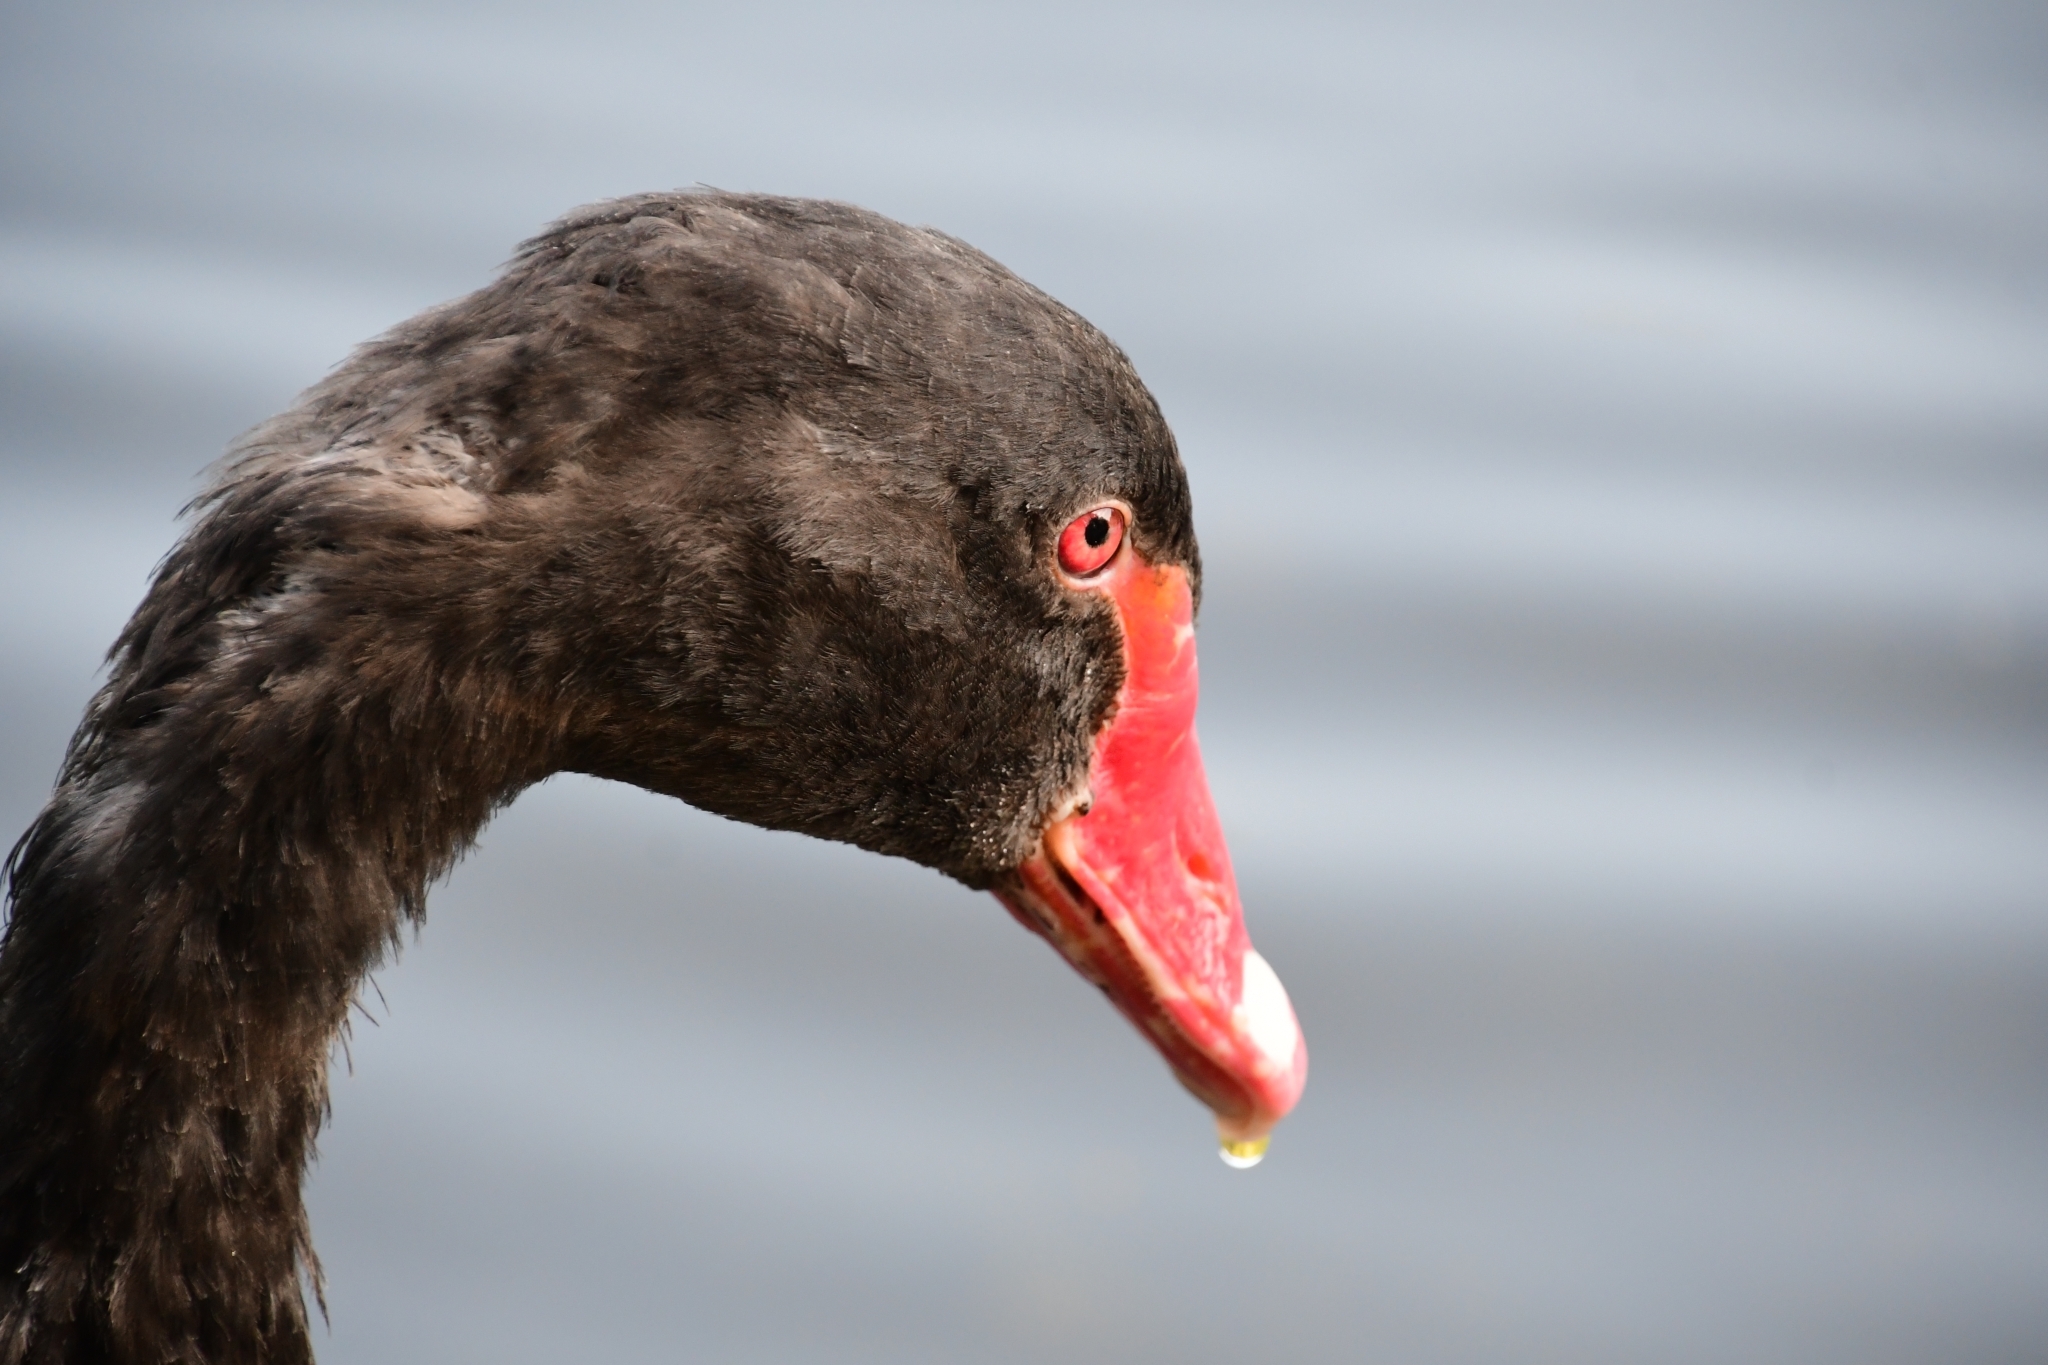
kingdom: Animalia
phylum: Chordata
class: Aves
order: Anseriformes
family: Anatidae
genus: Cygnus
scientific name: Cygnus atratus
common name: Black swan
